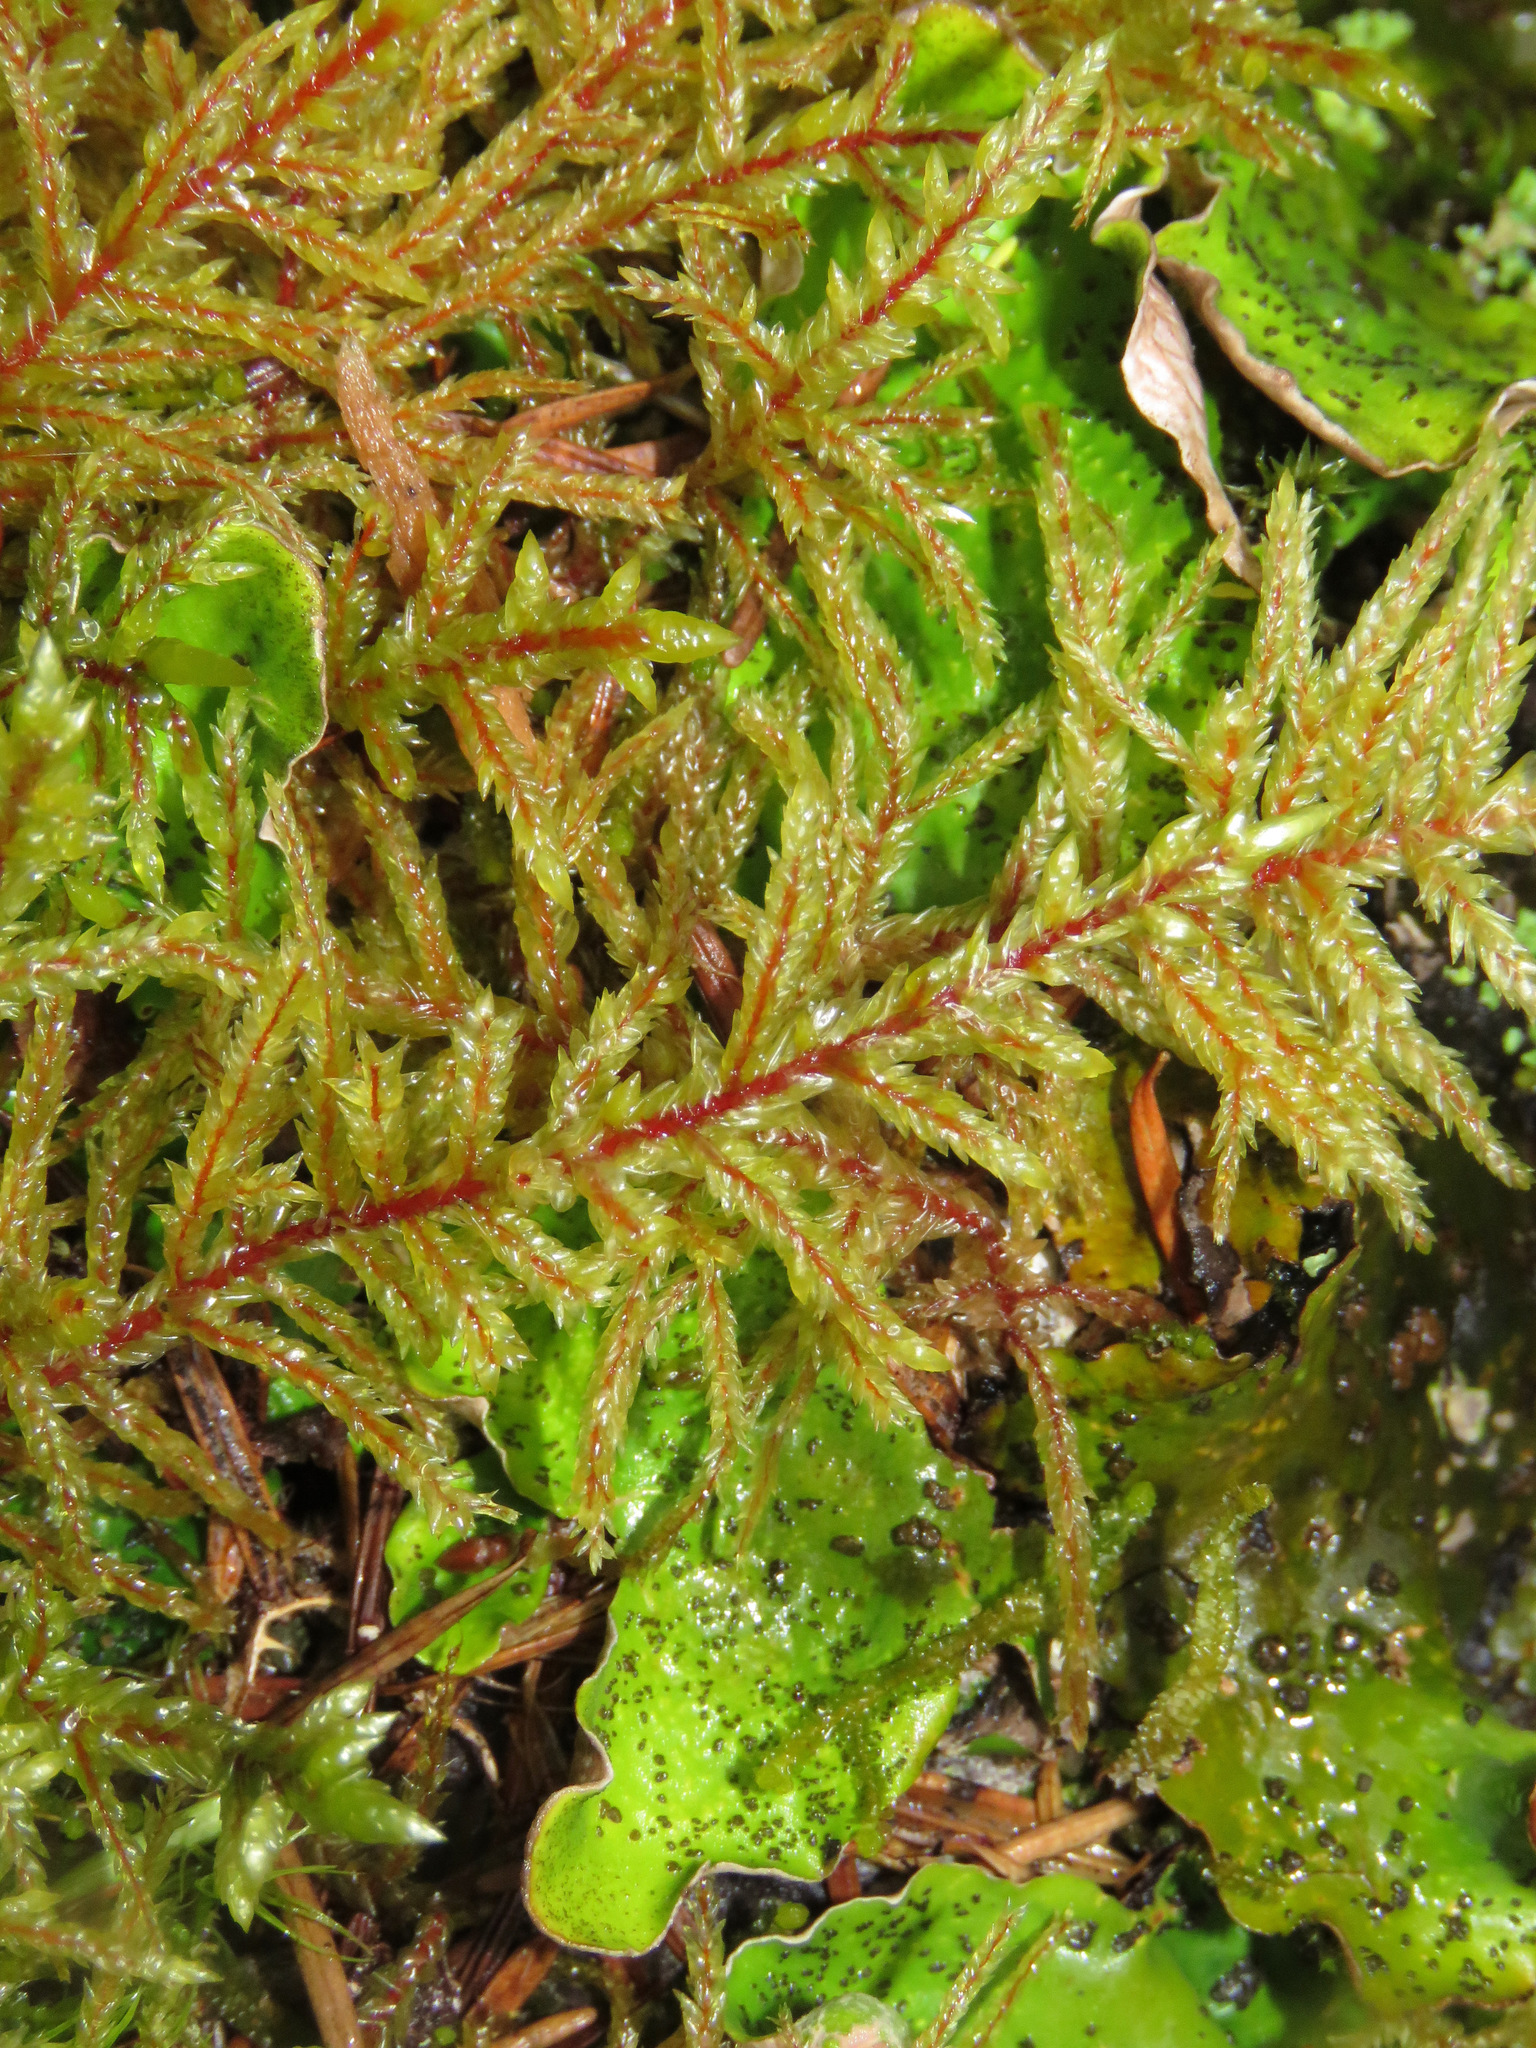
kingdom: Plantae
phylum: Bryophyta
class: Bryopsida
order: Hypnales
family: Hylocomiaceae
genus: Pleurozium
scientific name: Pleurozium schreberi
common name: Red-stemmed feather moss
